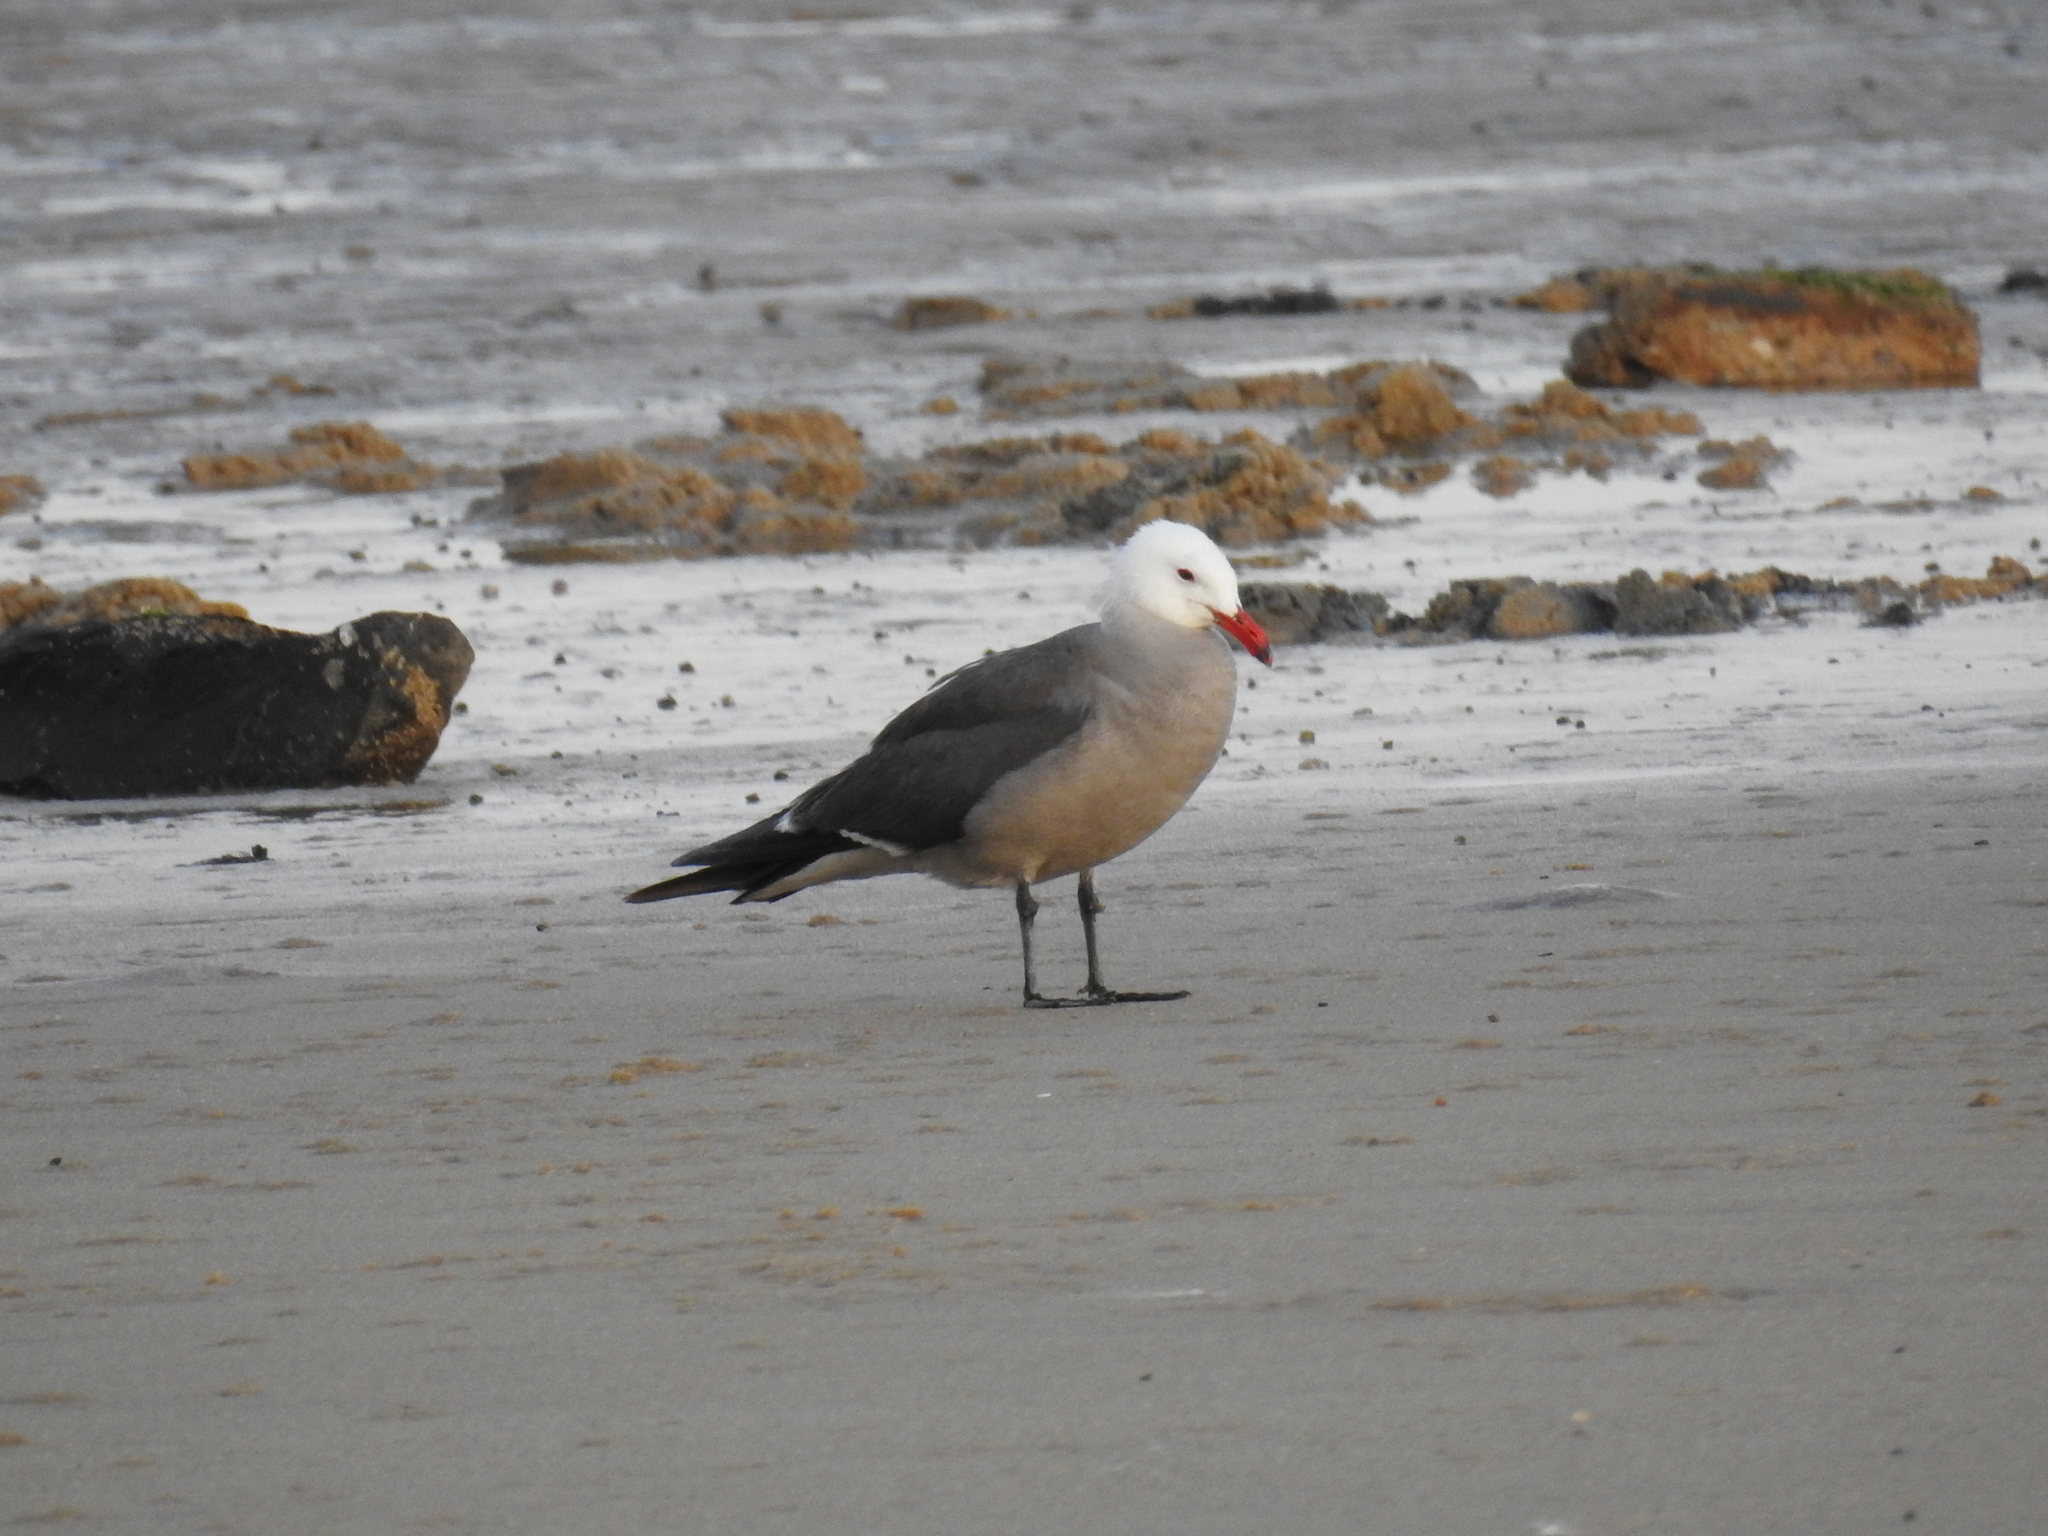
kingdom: Animalia
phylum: Chordata
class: Aves
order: Charadriiformes
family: Laridae
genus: Larus
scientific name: Larus heermanni
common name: Heermann's gull
